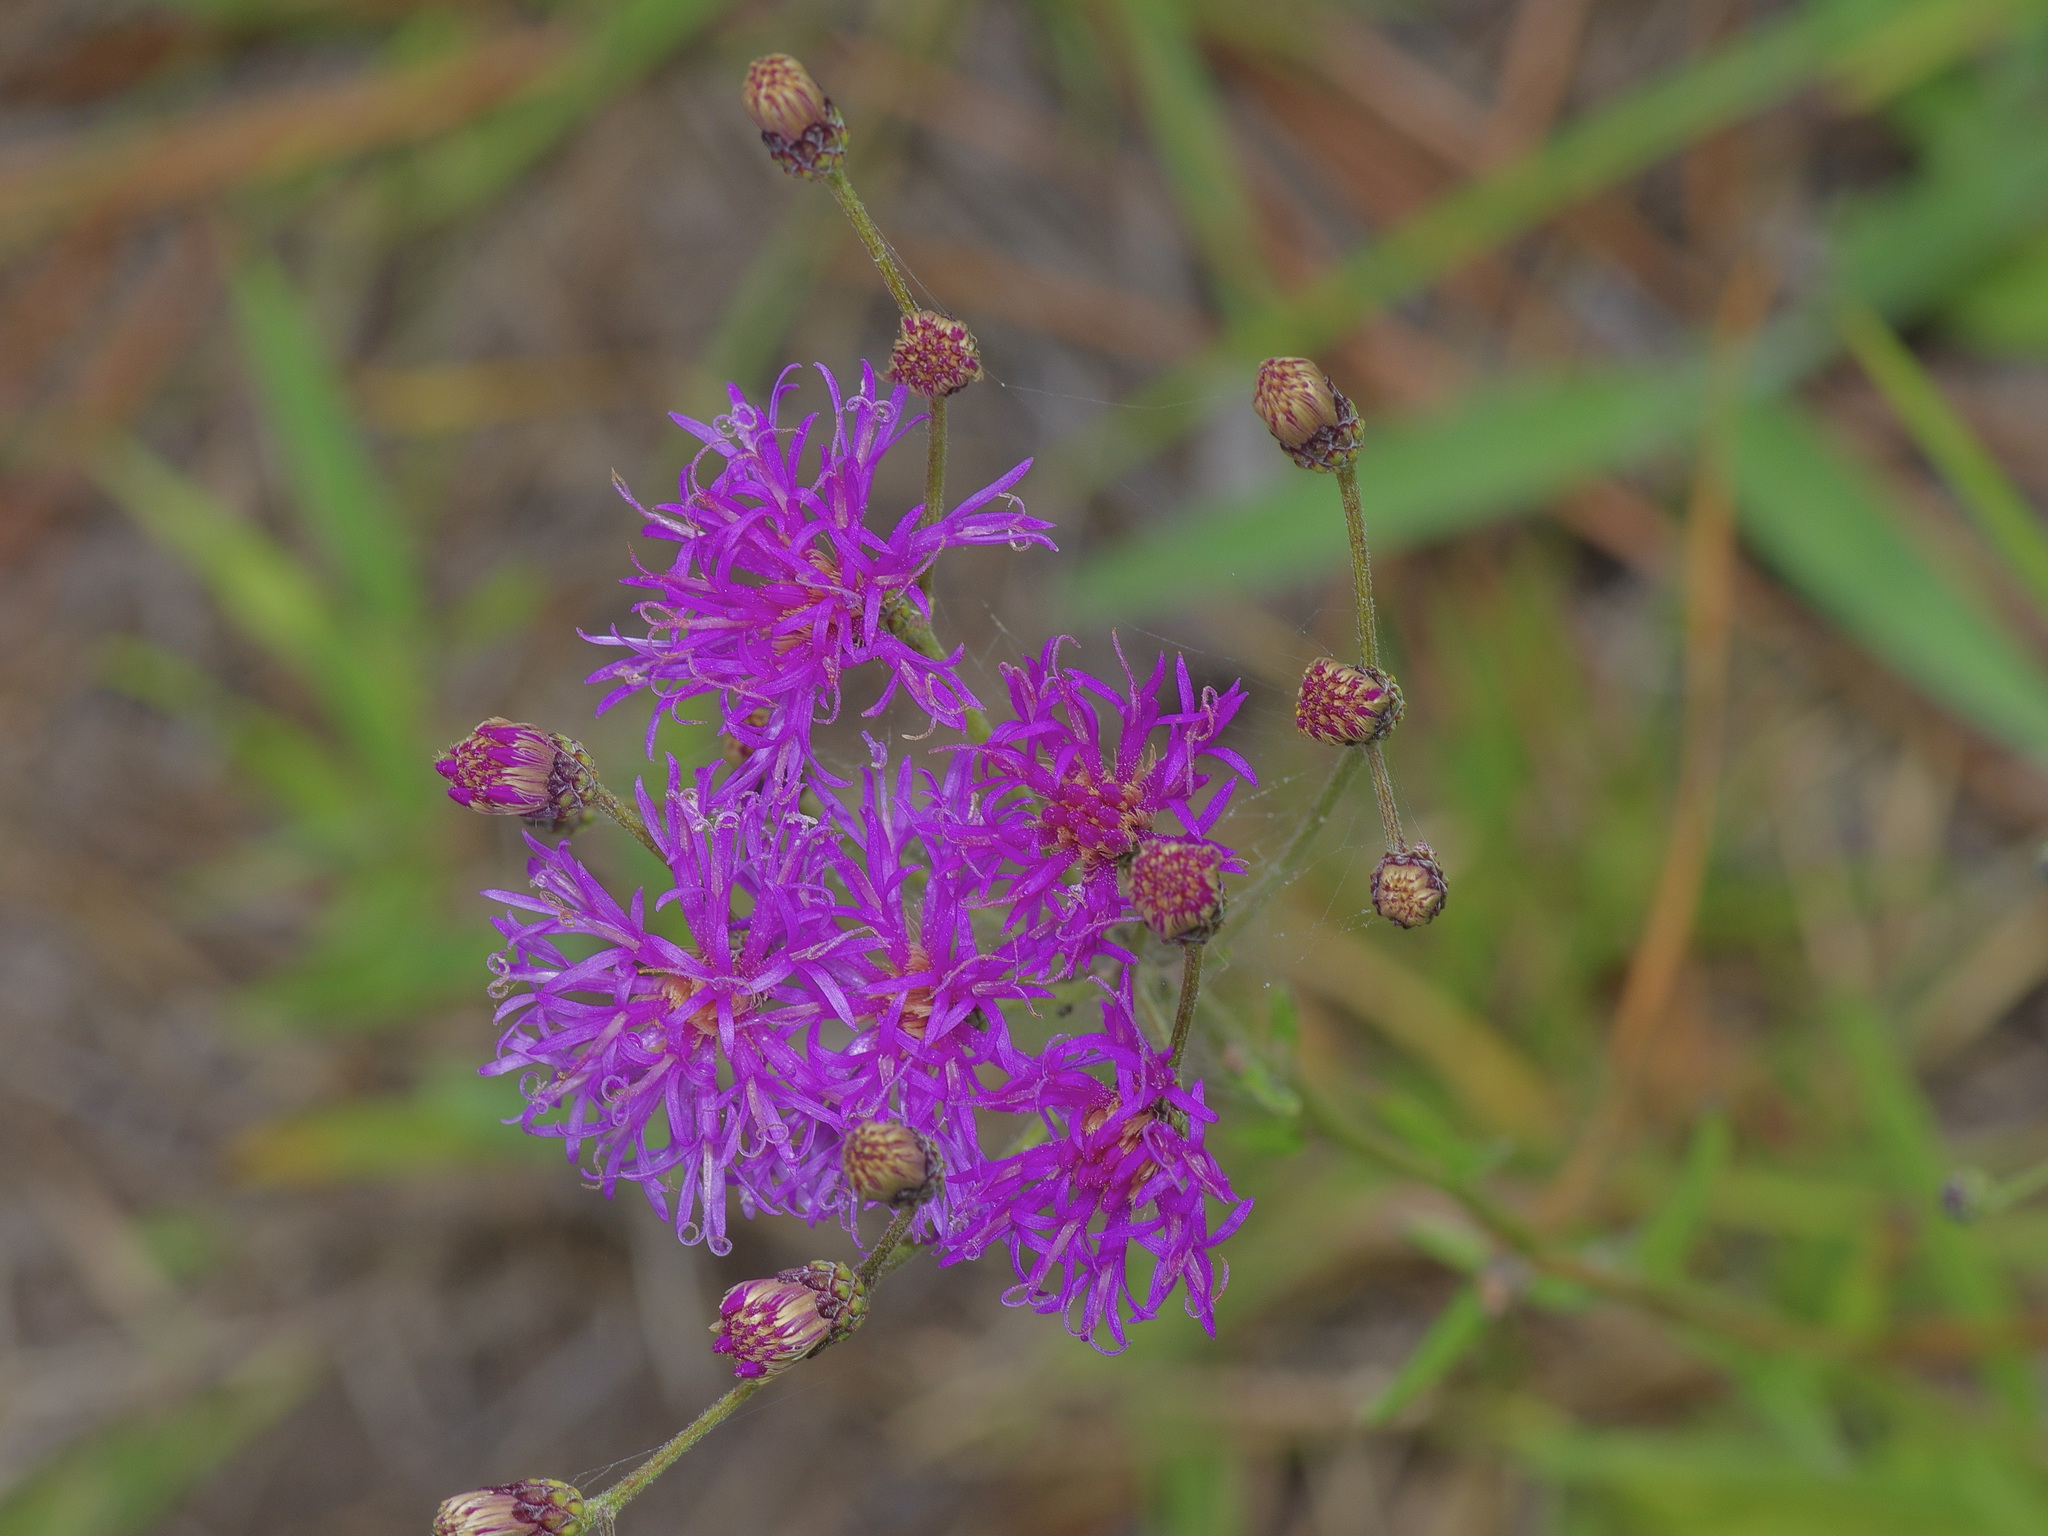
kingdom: Plantae
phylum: Tracheophyta
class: Magnoliopsida
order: Asterales
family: Asteraceae
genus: Vernonia
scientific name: Vernonia texana
